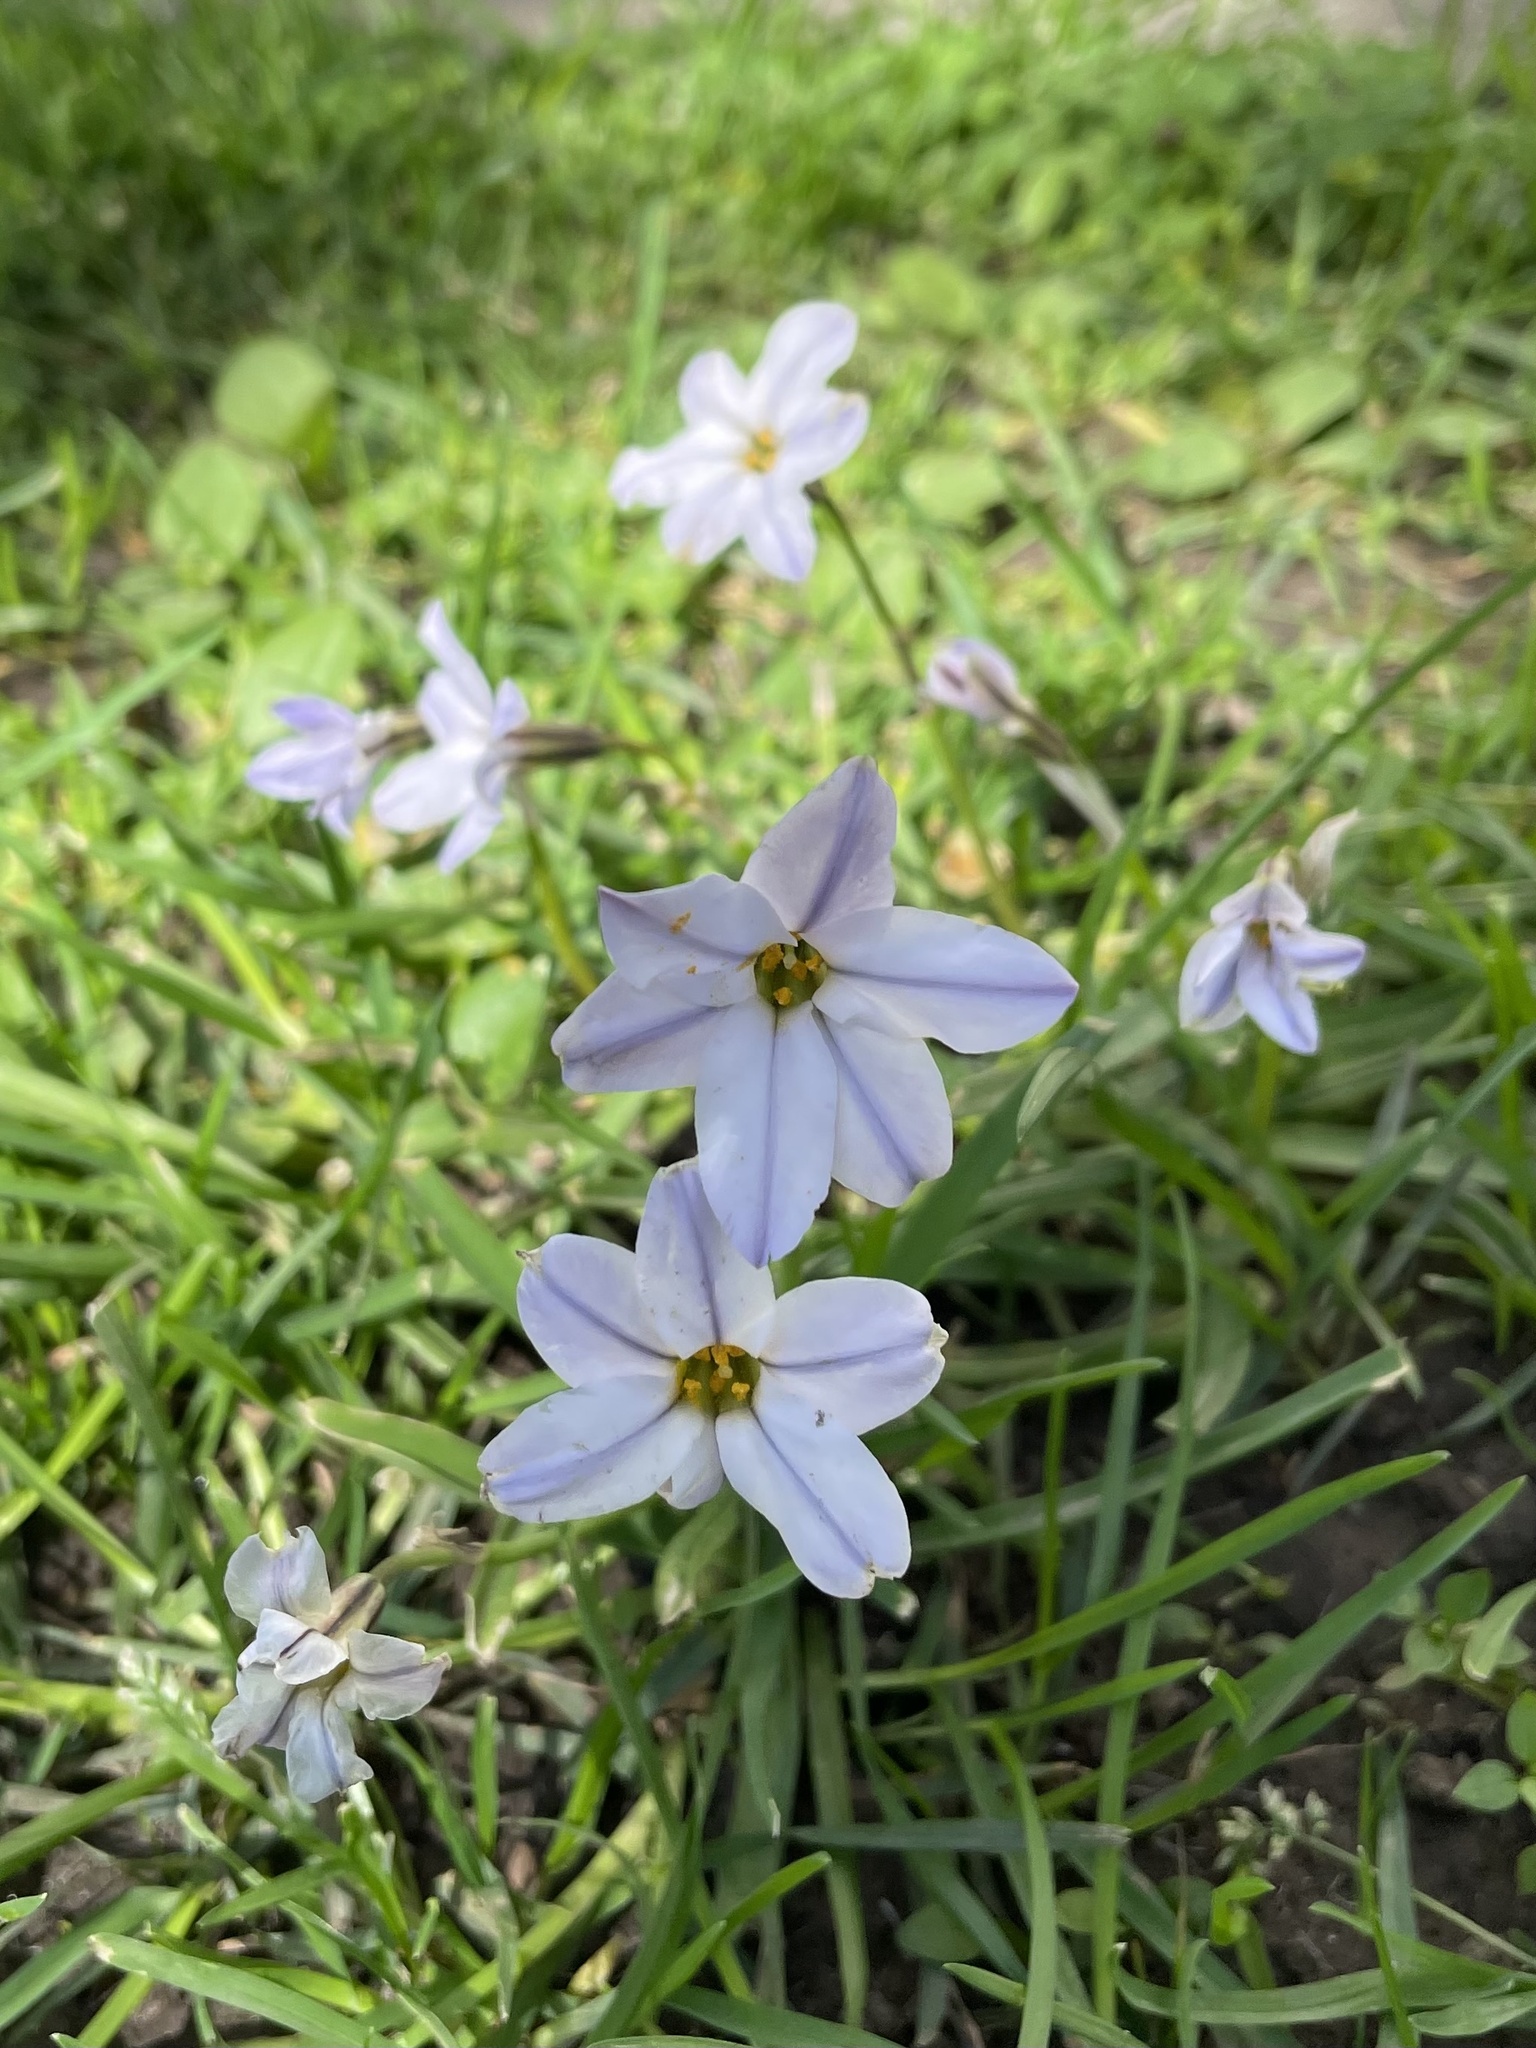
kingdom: Plantae
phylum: Tracheophyta
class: Liliopsida
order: Asparagales
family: Amaryllidaceae
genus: Ipheion
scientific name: Ipheion uniflorum
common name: Spring starflower
